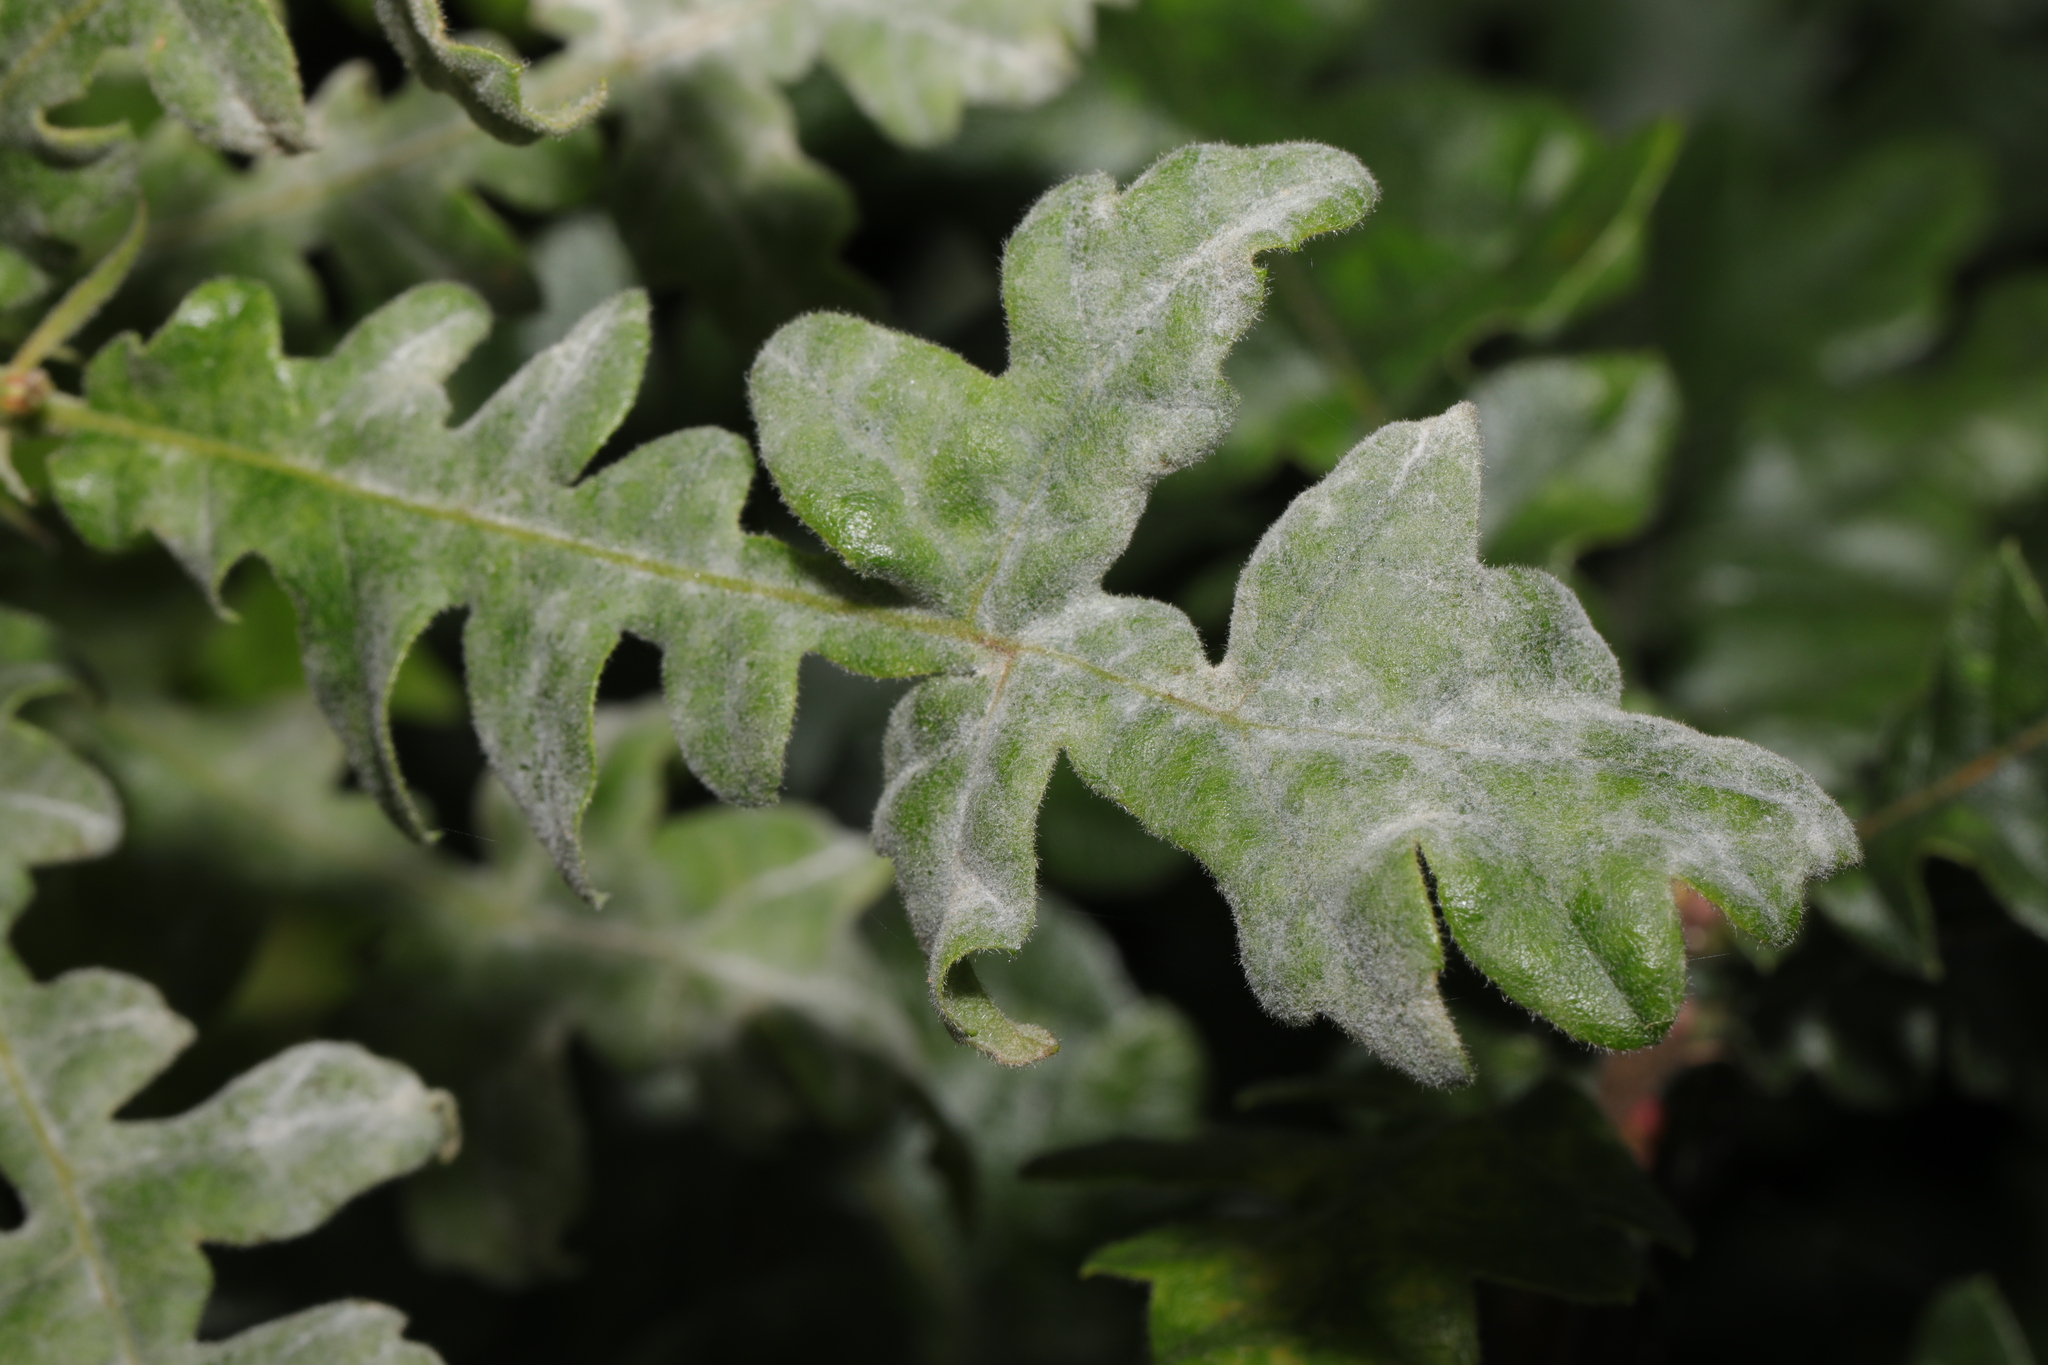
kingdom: Fungi
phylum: Ascomycota
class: Leotiomycetes
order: Helotiales
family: Erysiphaceae
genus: Erysiphe
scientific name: Erysiphe alphitoides
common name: Oak mildew
